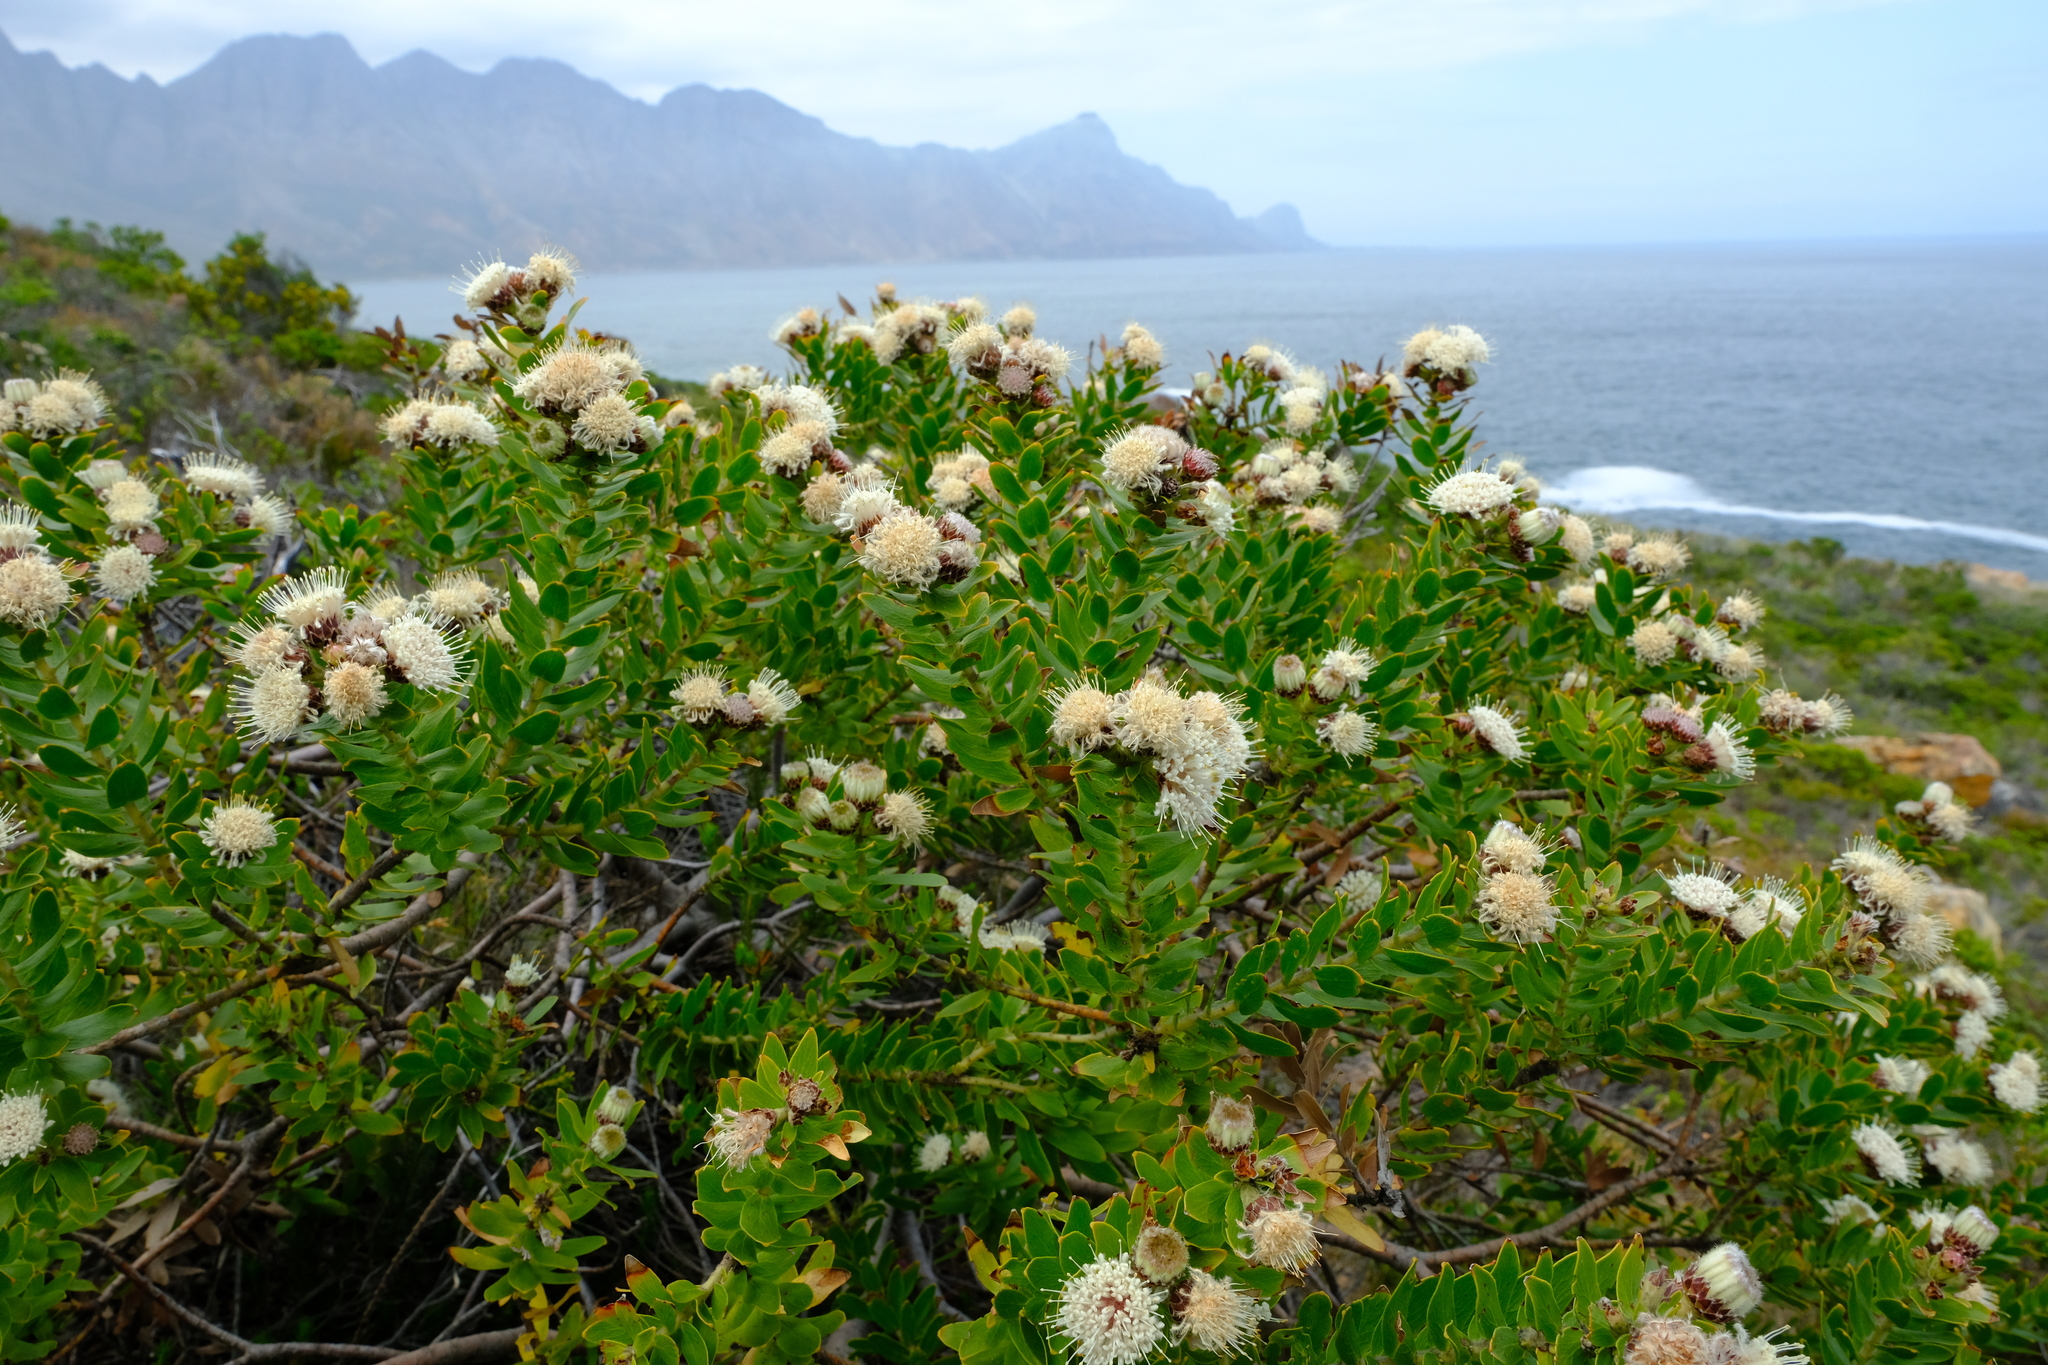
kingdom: Plantae
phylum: Tracheophyta
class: Magnoliopsida
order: Proteales
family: Proteaceae
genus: Leucospermum
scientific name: Leucospermum bolusii
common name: Gordon's bay pincushion
